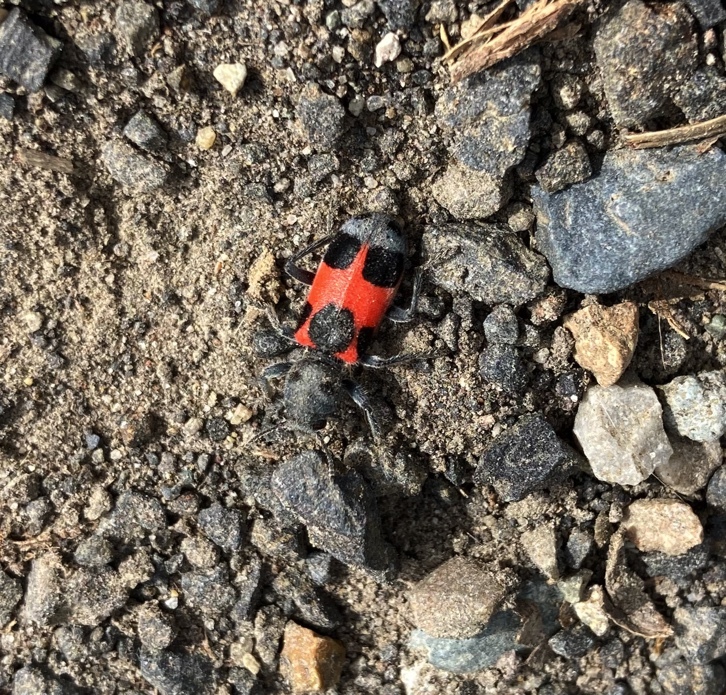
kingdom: Animalia
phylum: Arthropoda
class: Insecta
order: Coleoptera
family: Cleridae
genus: Enoclerus
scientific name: Enoclerus eximius
